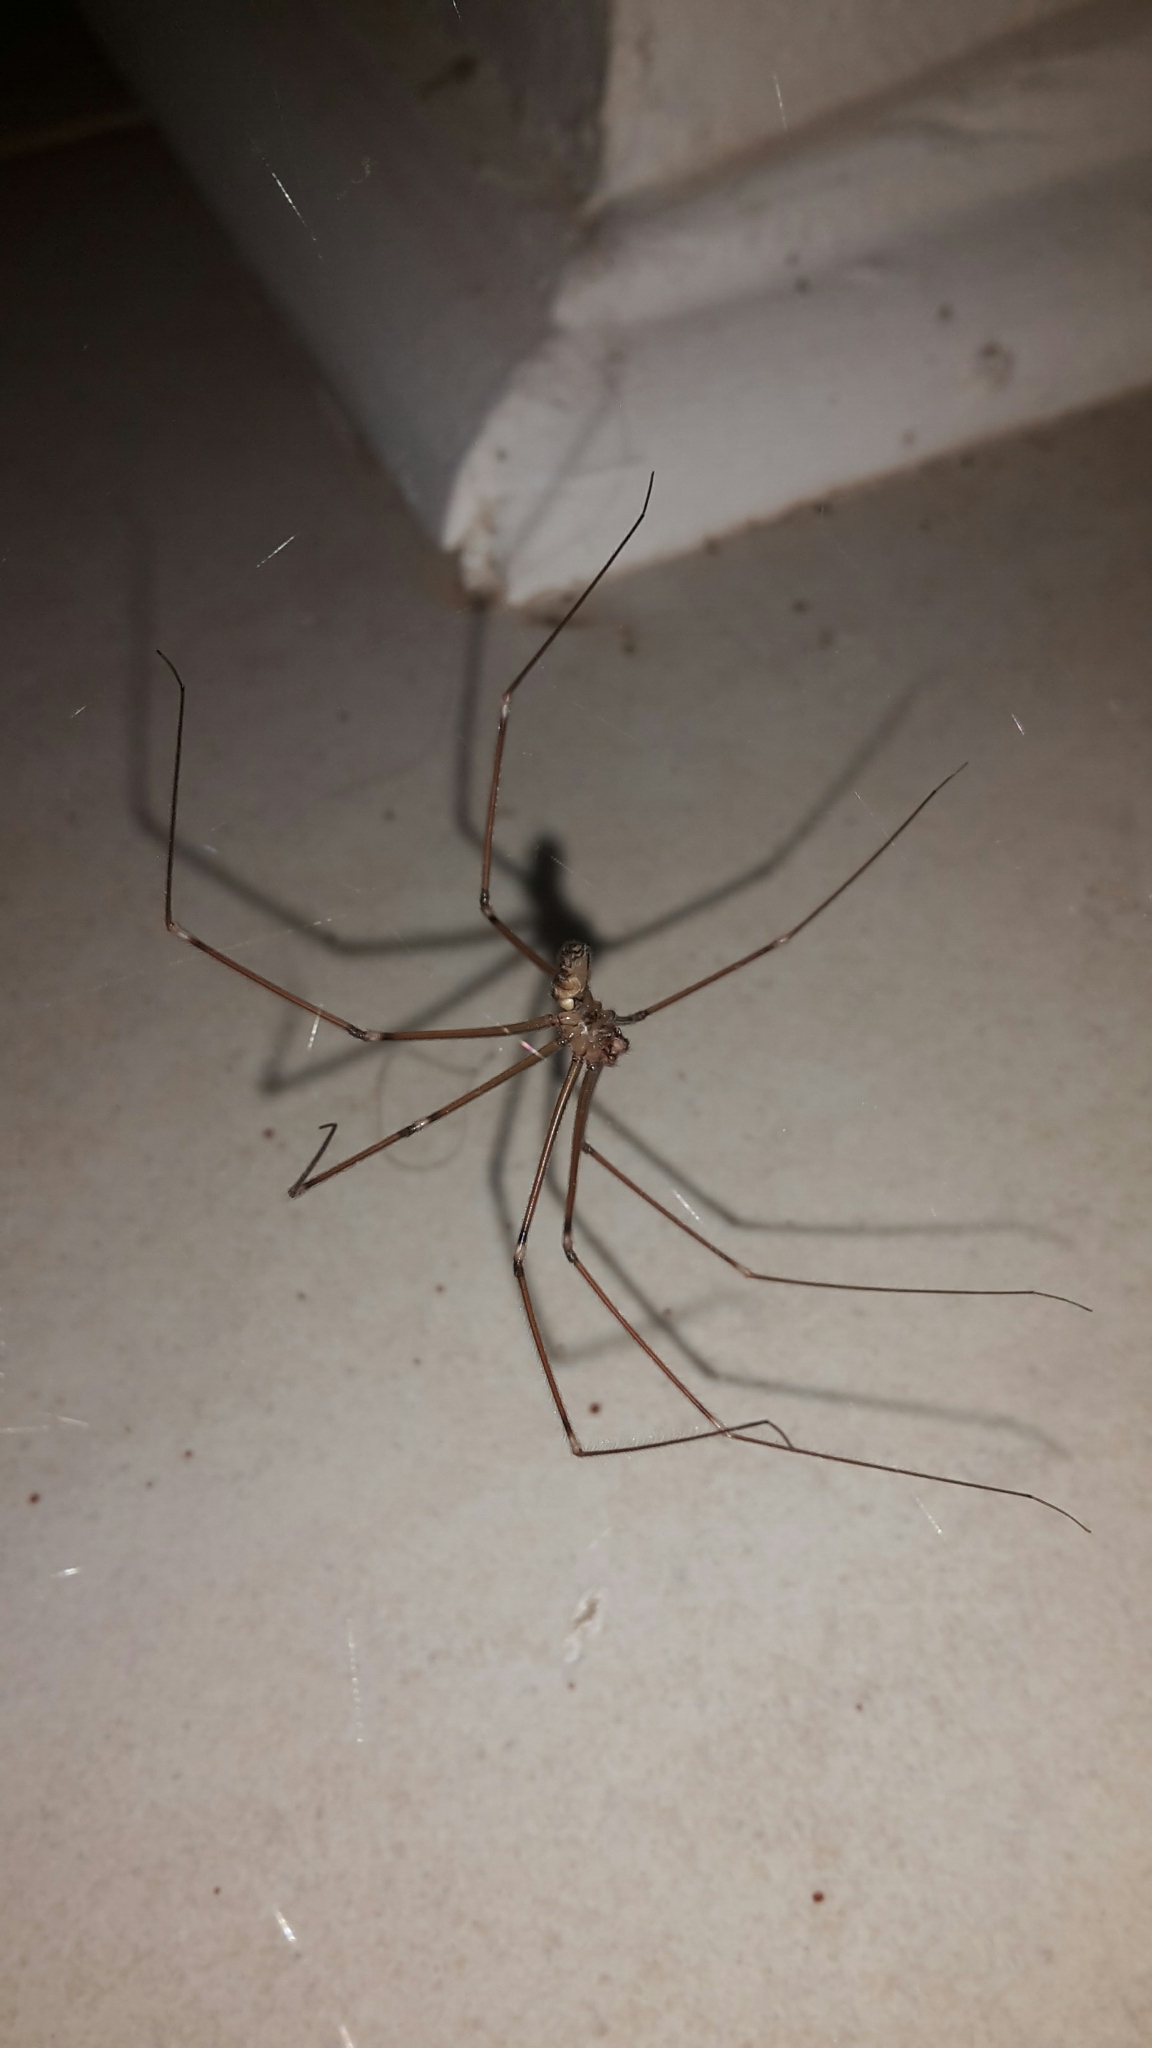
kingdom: Animalia
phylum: Arthropoda
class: Arachnida
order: Araneae
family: Pholcidae
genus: Smeringopus
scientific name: Smeringopus natalensis
